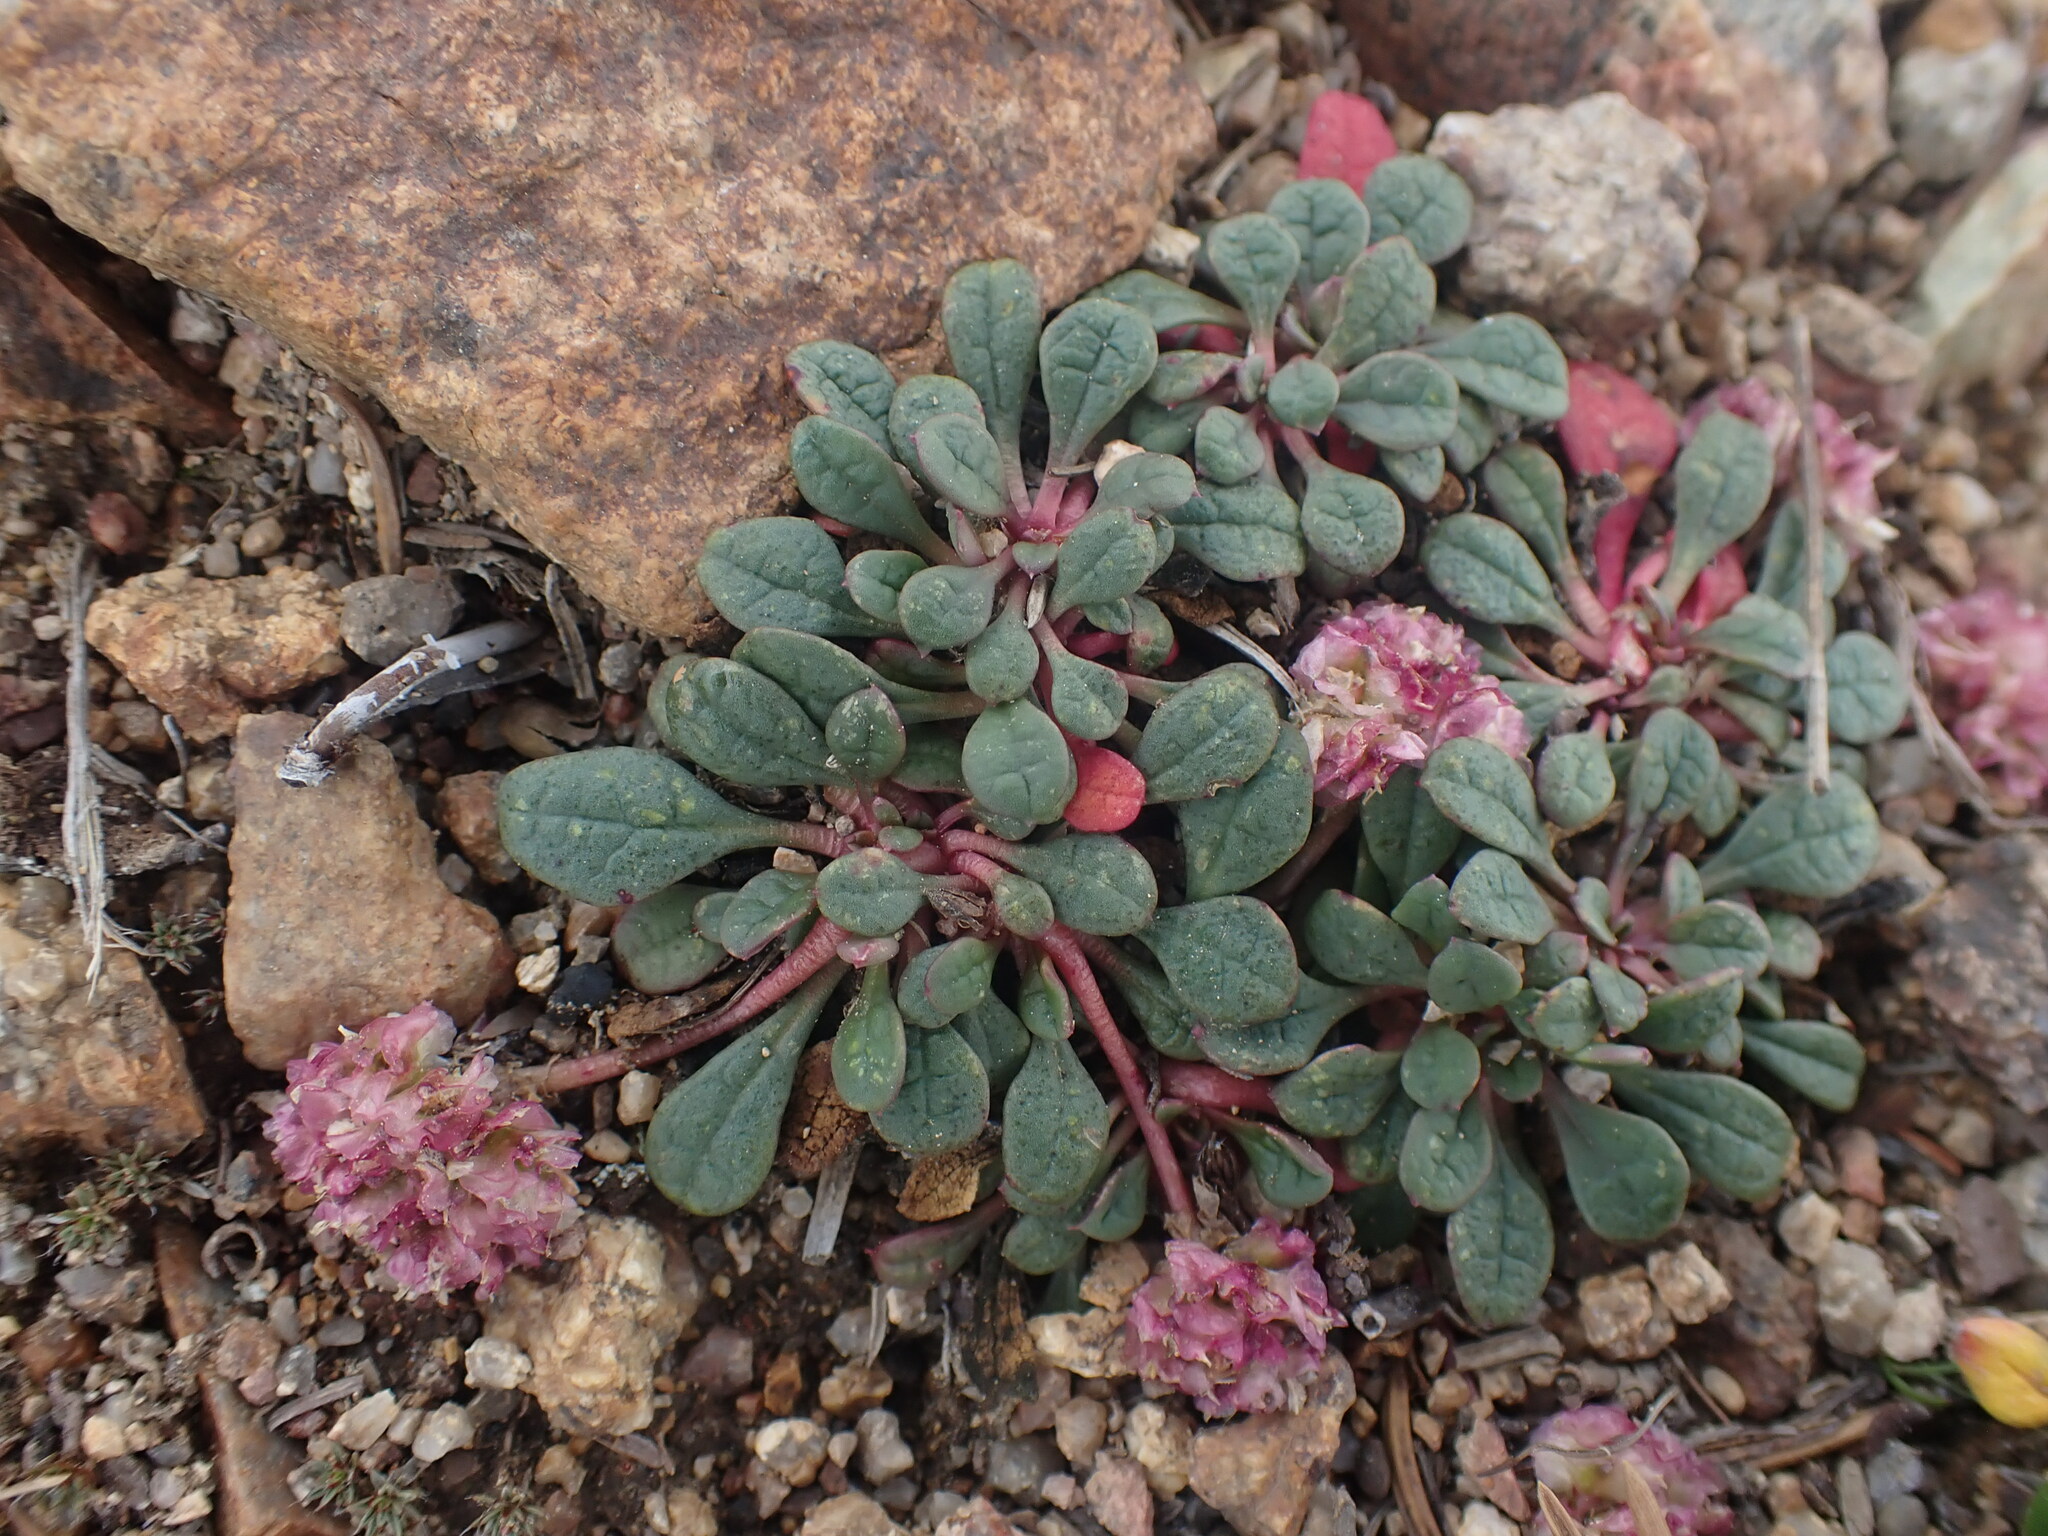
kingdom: Plantae
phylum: Tracheophyta
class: Magnoliopsida
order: Caryophyllales
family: Montiaceae
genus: Calyptridium
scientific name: Calyptridium umbellatum
